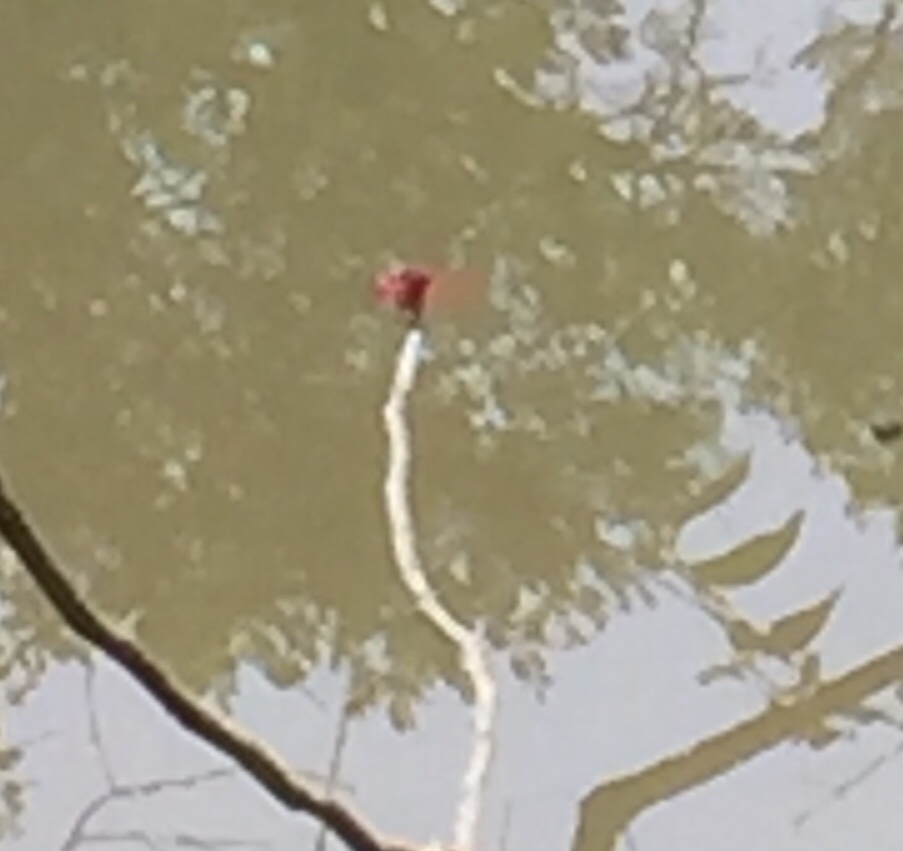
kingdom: Animalia
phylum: Arthropoda
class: Insecta
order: Odonata
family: Libellulidae
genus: Trithemis
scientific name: Trithemis aurora
